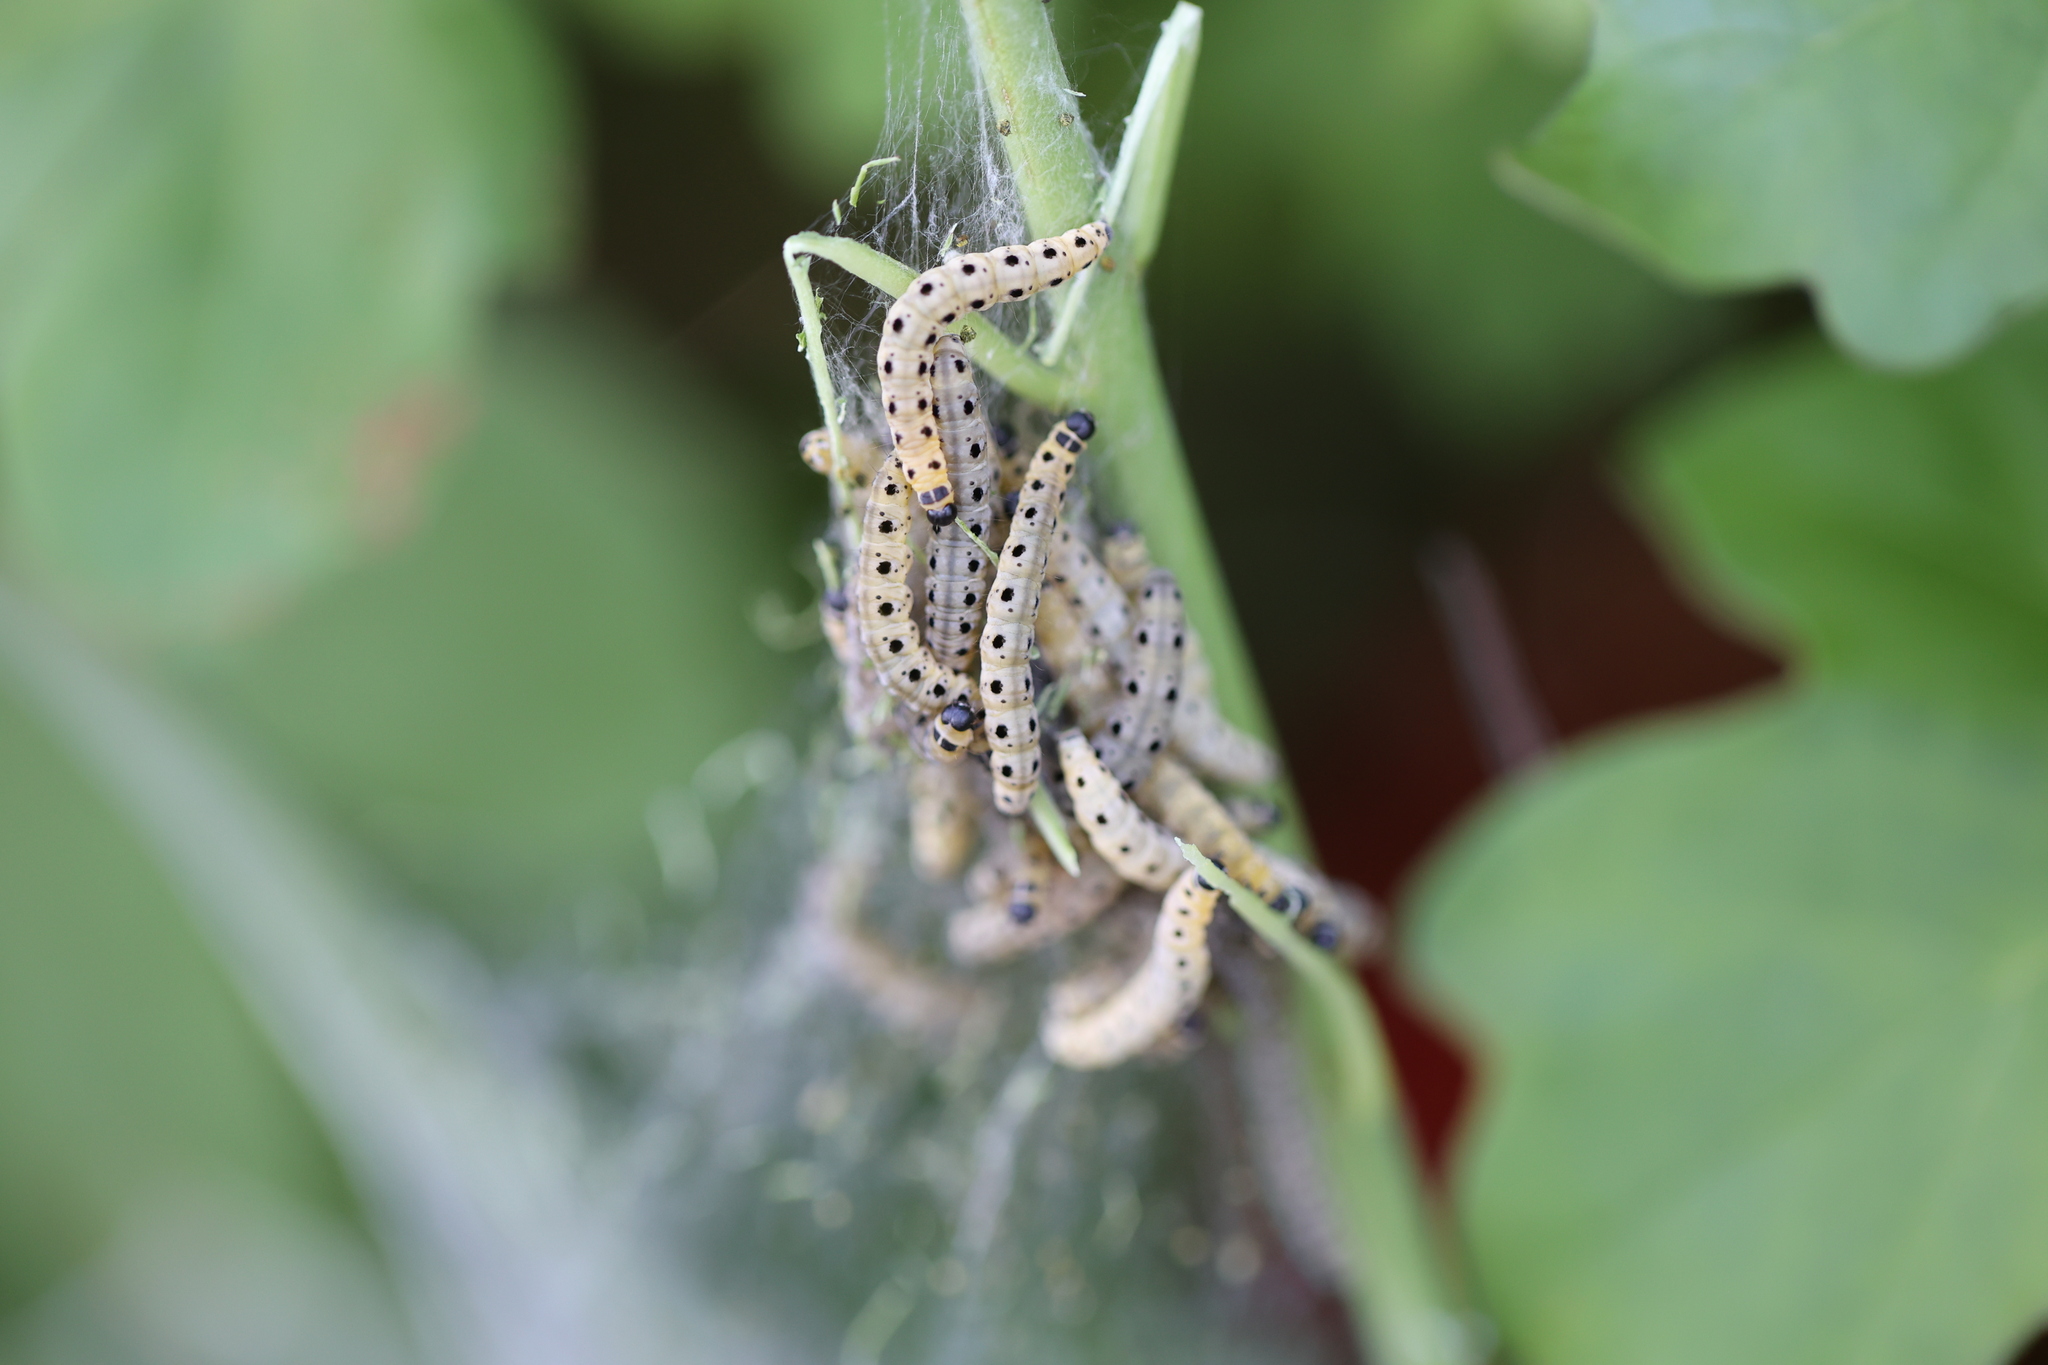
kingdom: Animalia
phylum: Arthropoda
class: Insecta
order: Lepidoptera
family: Yponomeutidae
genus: Yponomeuta
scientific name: Yponomeuta cagnagellus
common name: Spindle ermine
